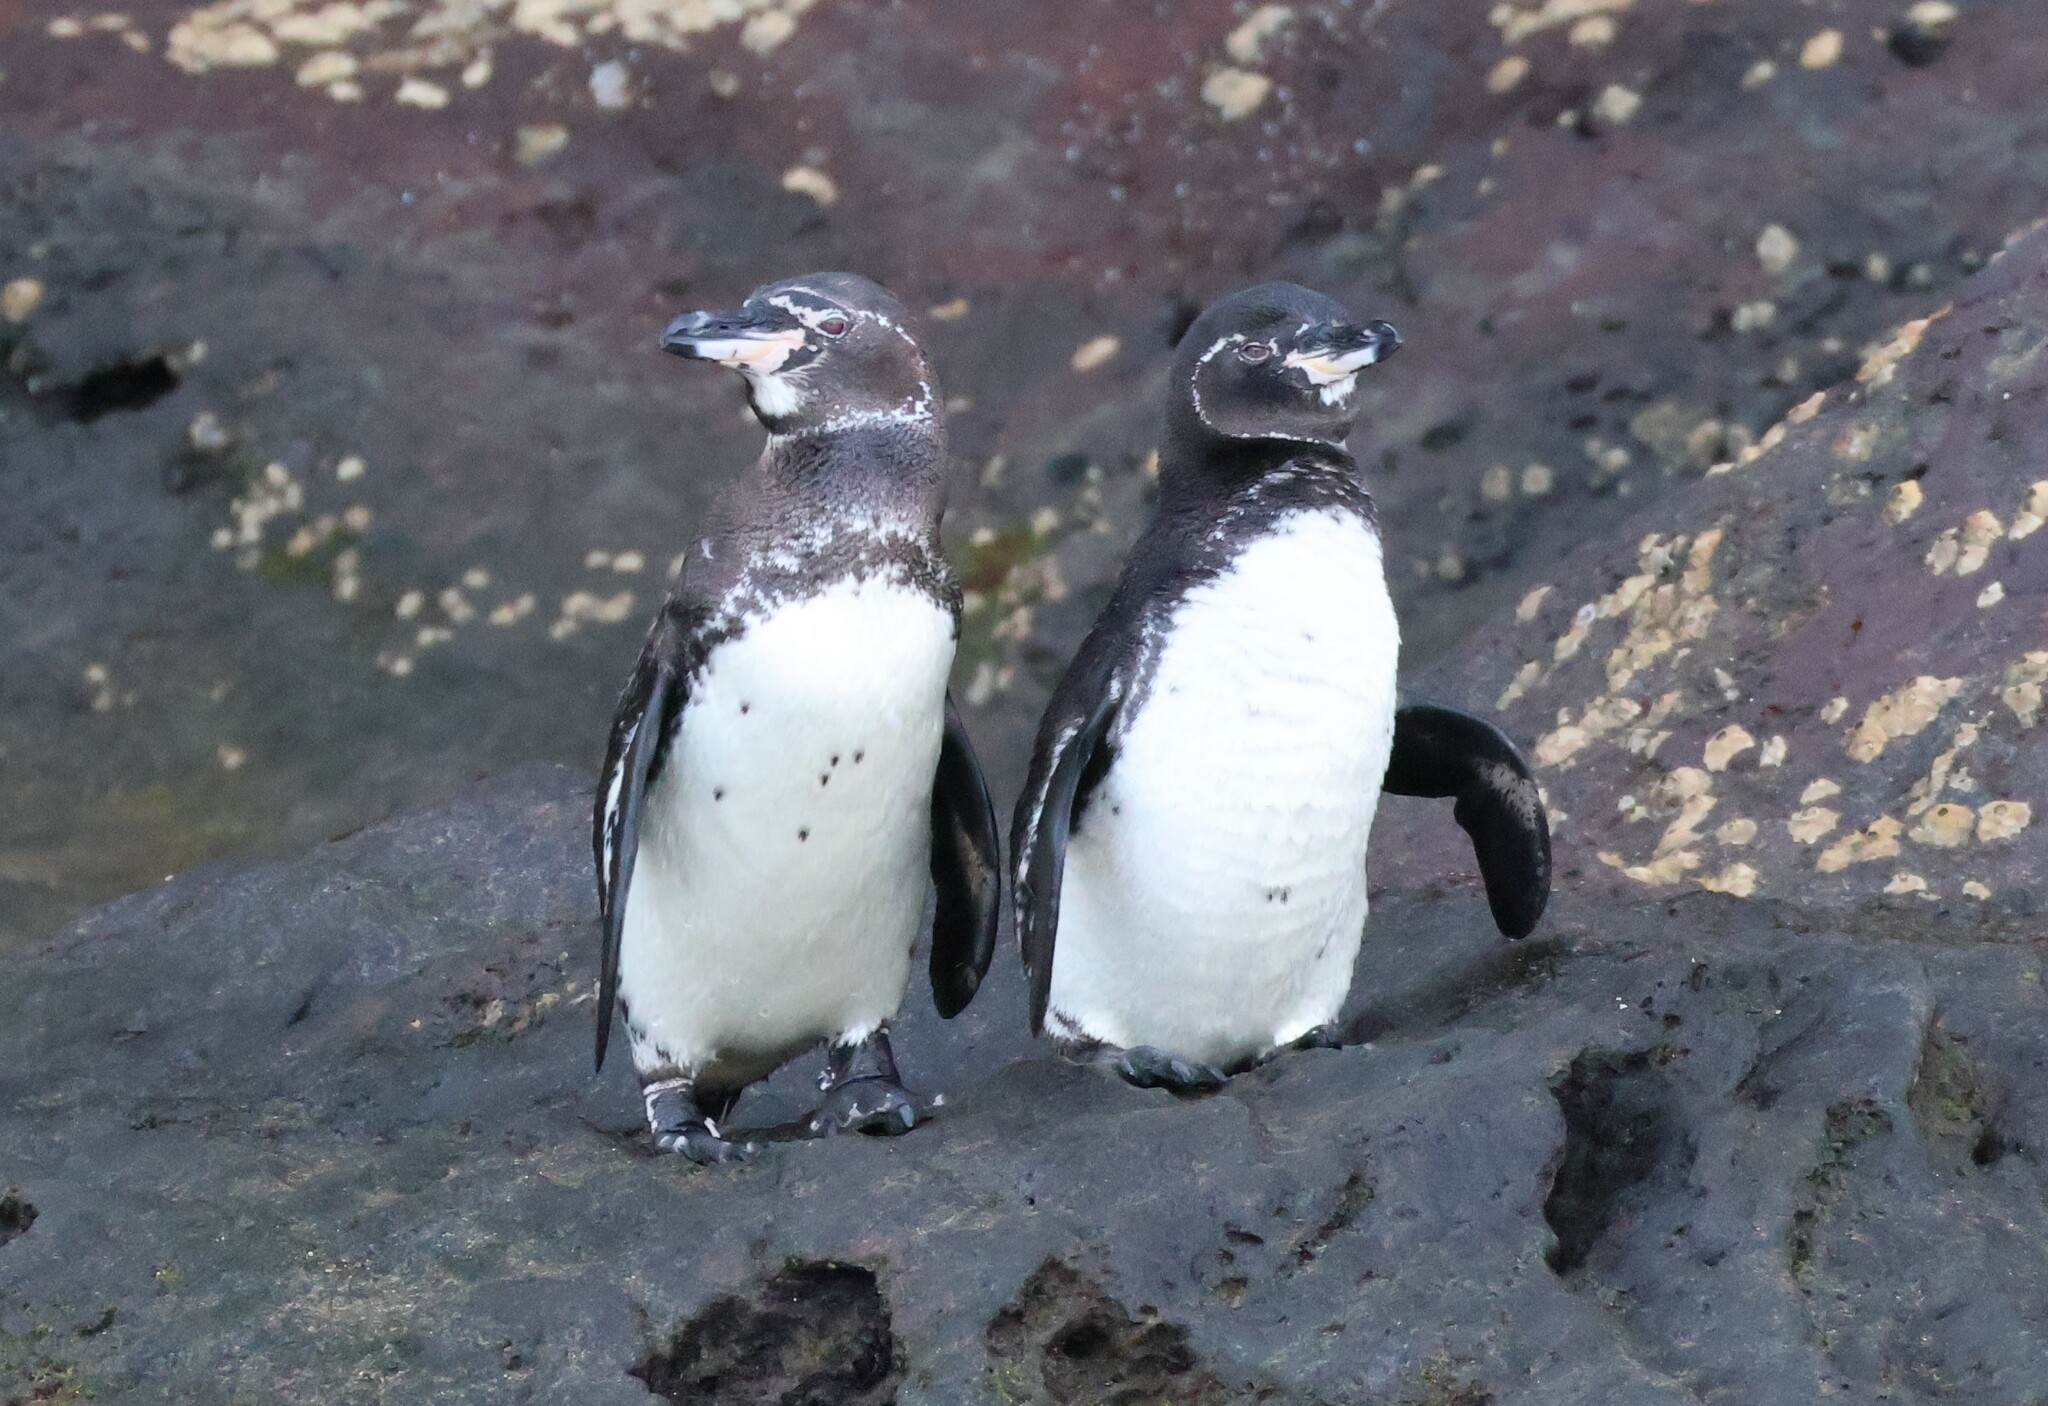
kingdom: Animalia
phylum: Chordata
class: Aves
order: Sphenisciformes
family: Spheniscidae
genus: Spheniscus
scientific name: Spheniscus mendiculus
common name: Galapagos penguin
